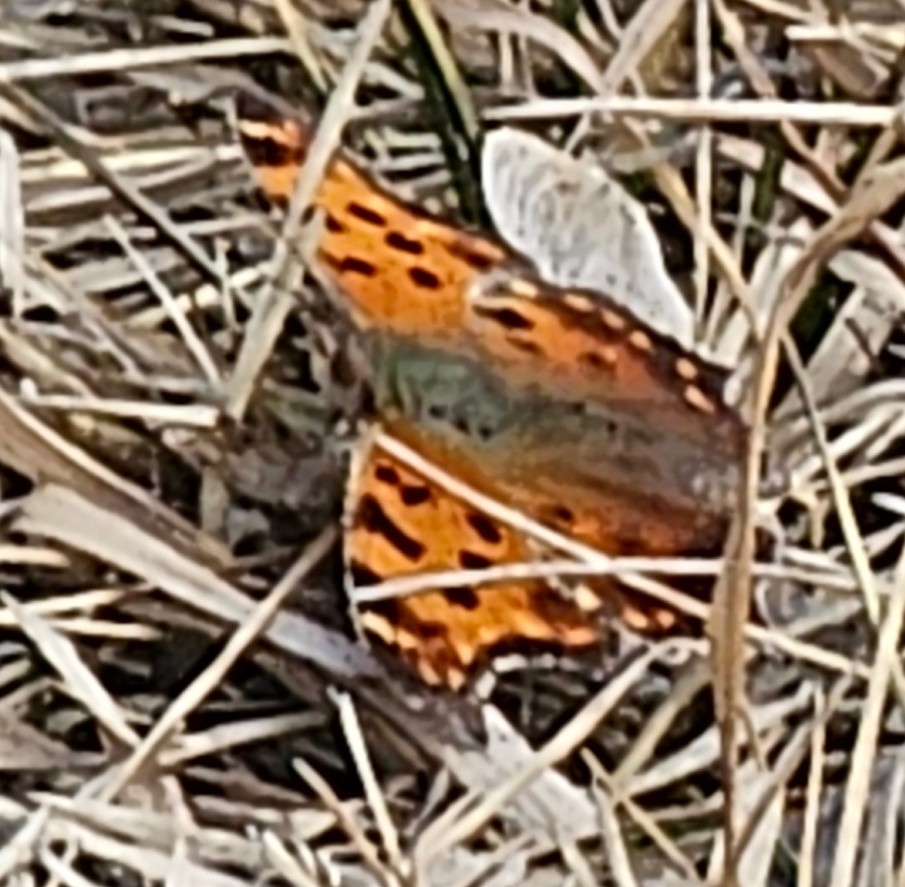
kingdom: Animalia
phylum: Arthropoda
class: Insecta
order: Lepidoptera
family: Nymphalidae
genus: Polygonia
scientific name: Polygonia faunus
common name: Green comma
